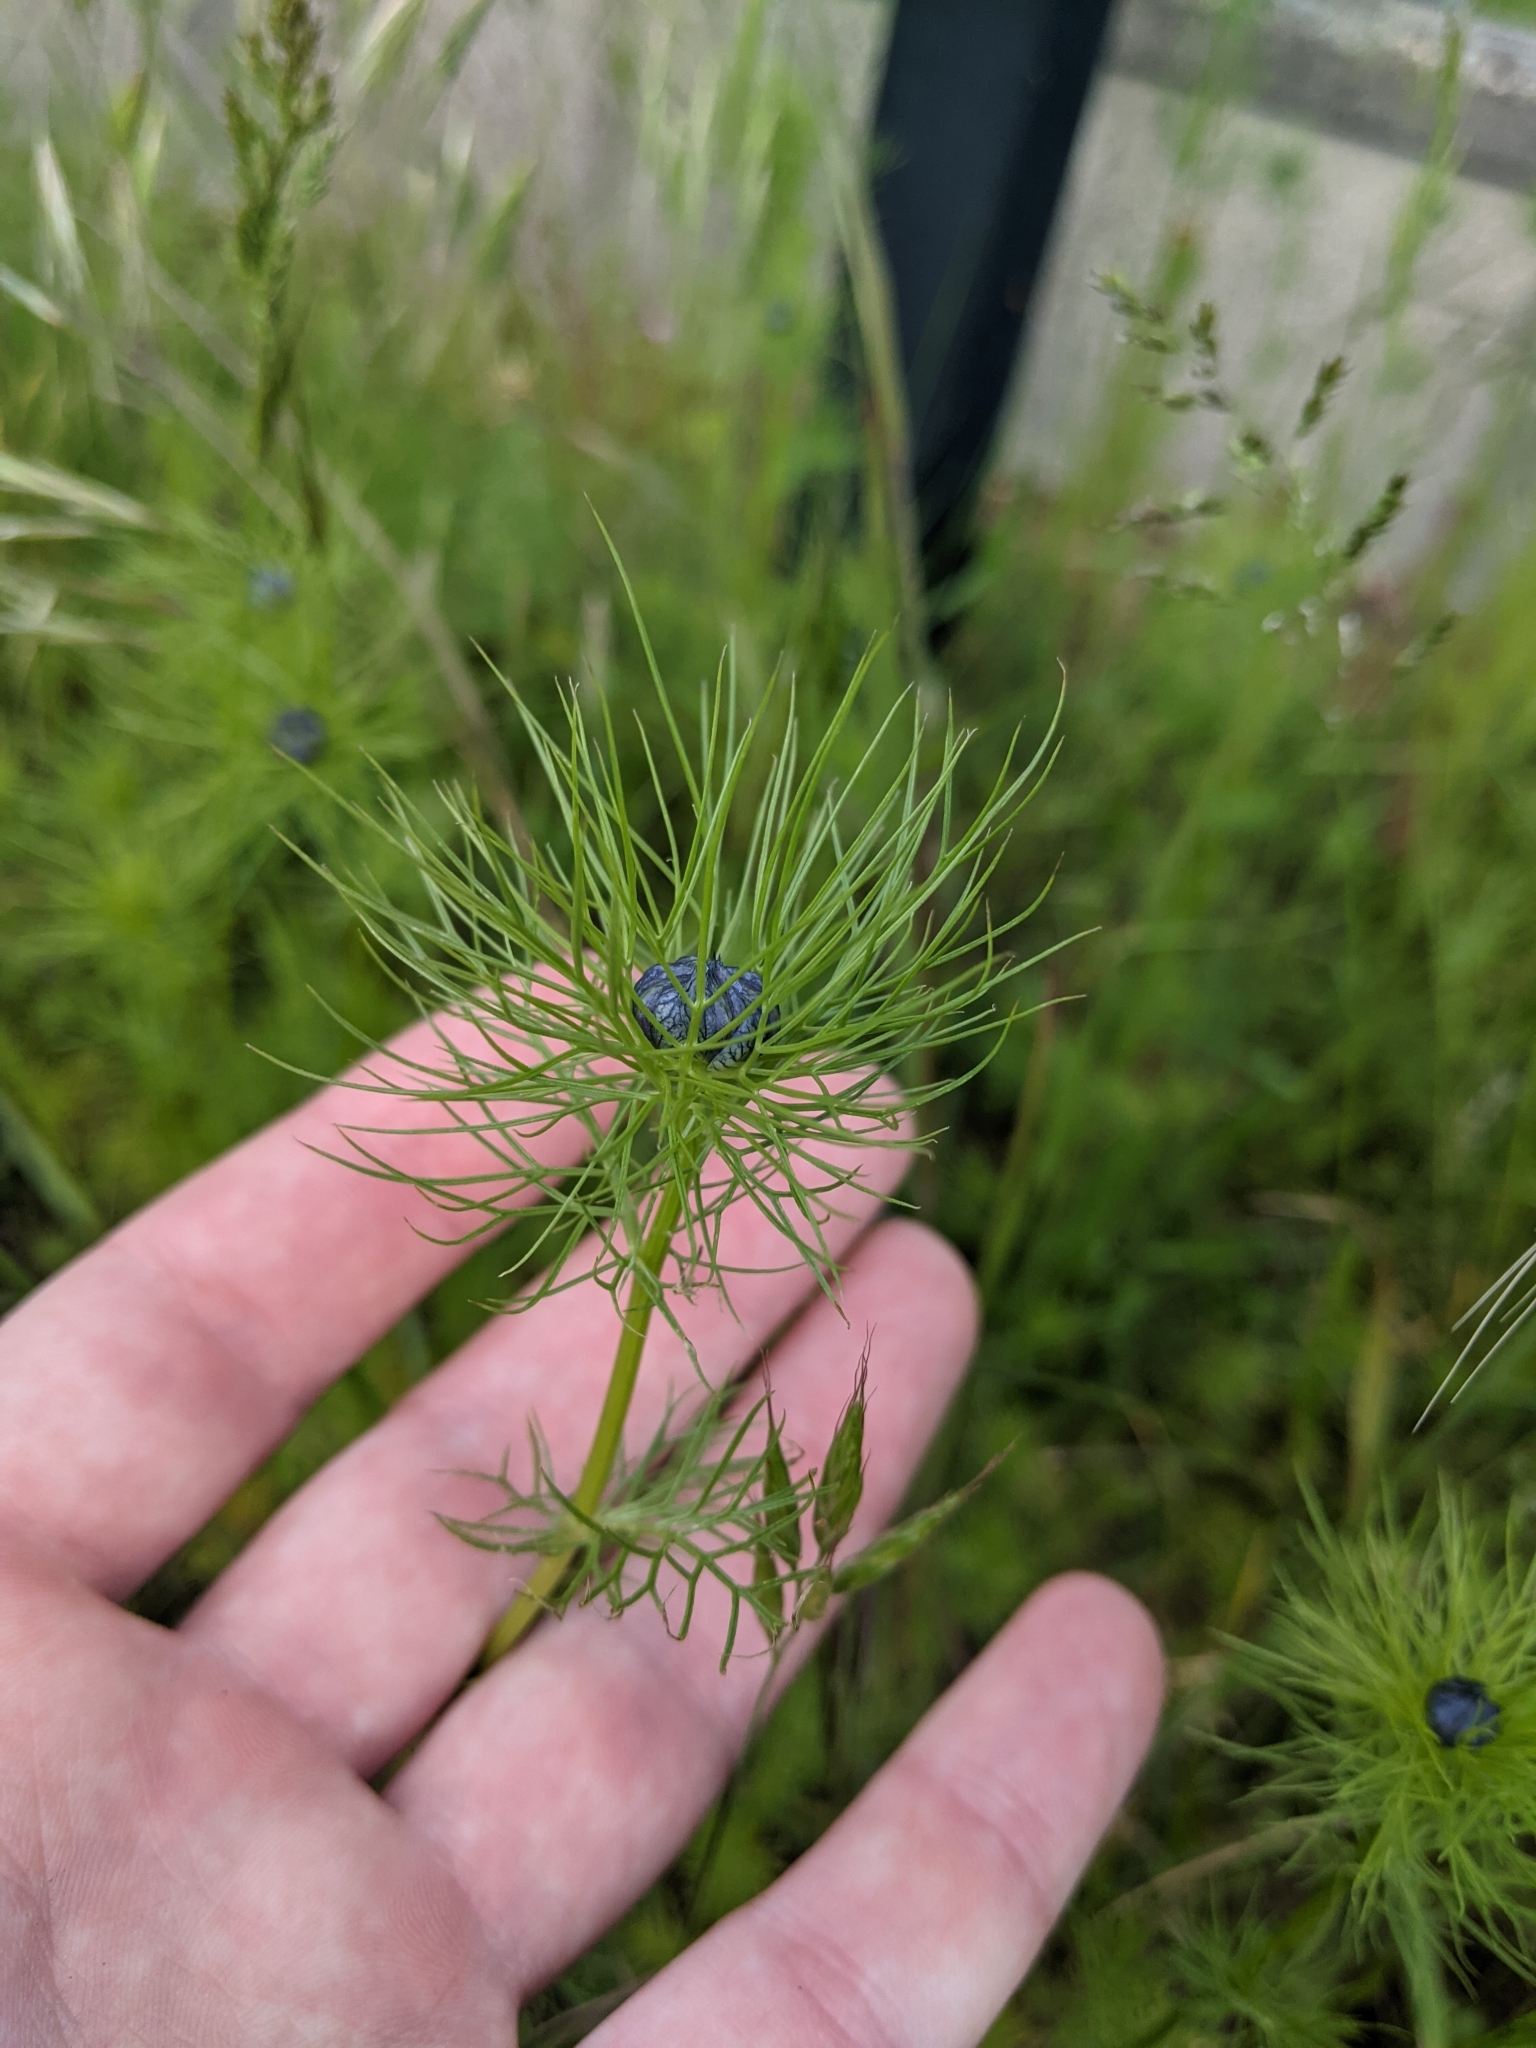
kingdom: Plantae
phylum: Tracheophyta
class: Magnoliopsida
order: Ranunculales
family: Ranunculaceae
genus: Nigella
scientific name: Nigella damascena
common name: Love-in-a-mist
